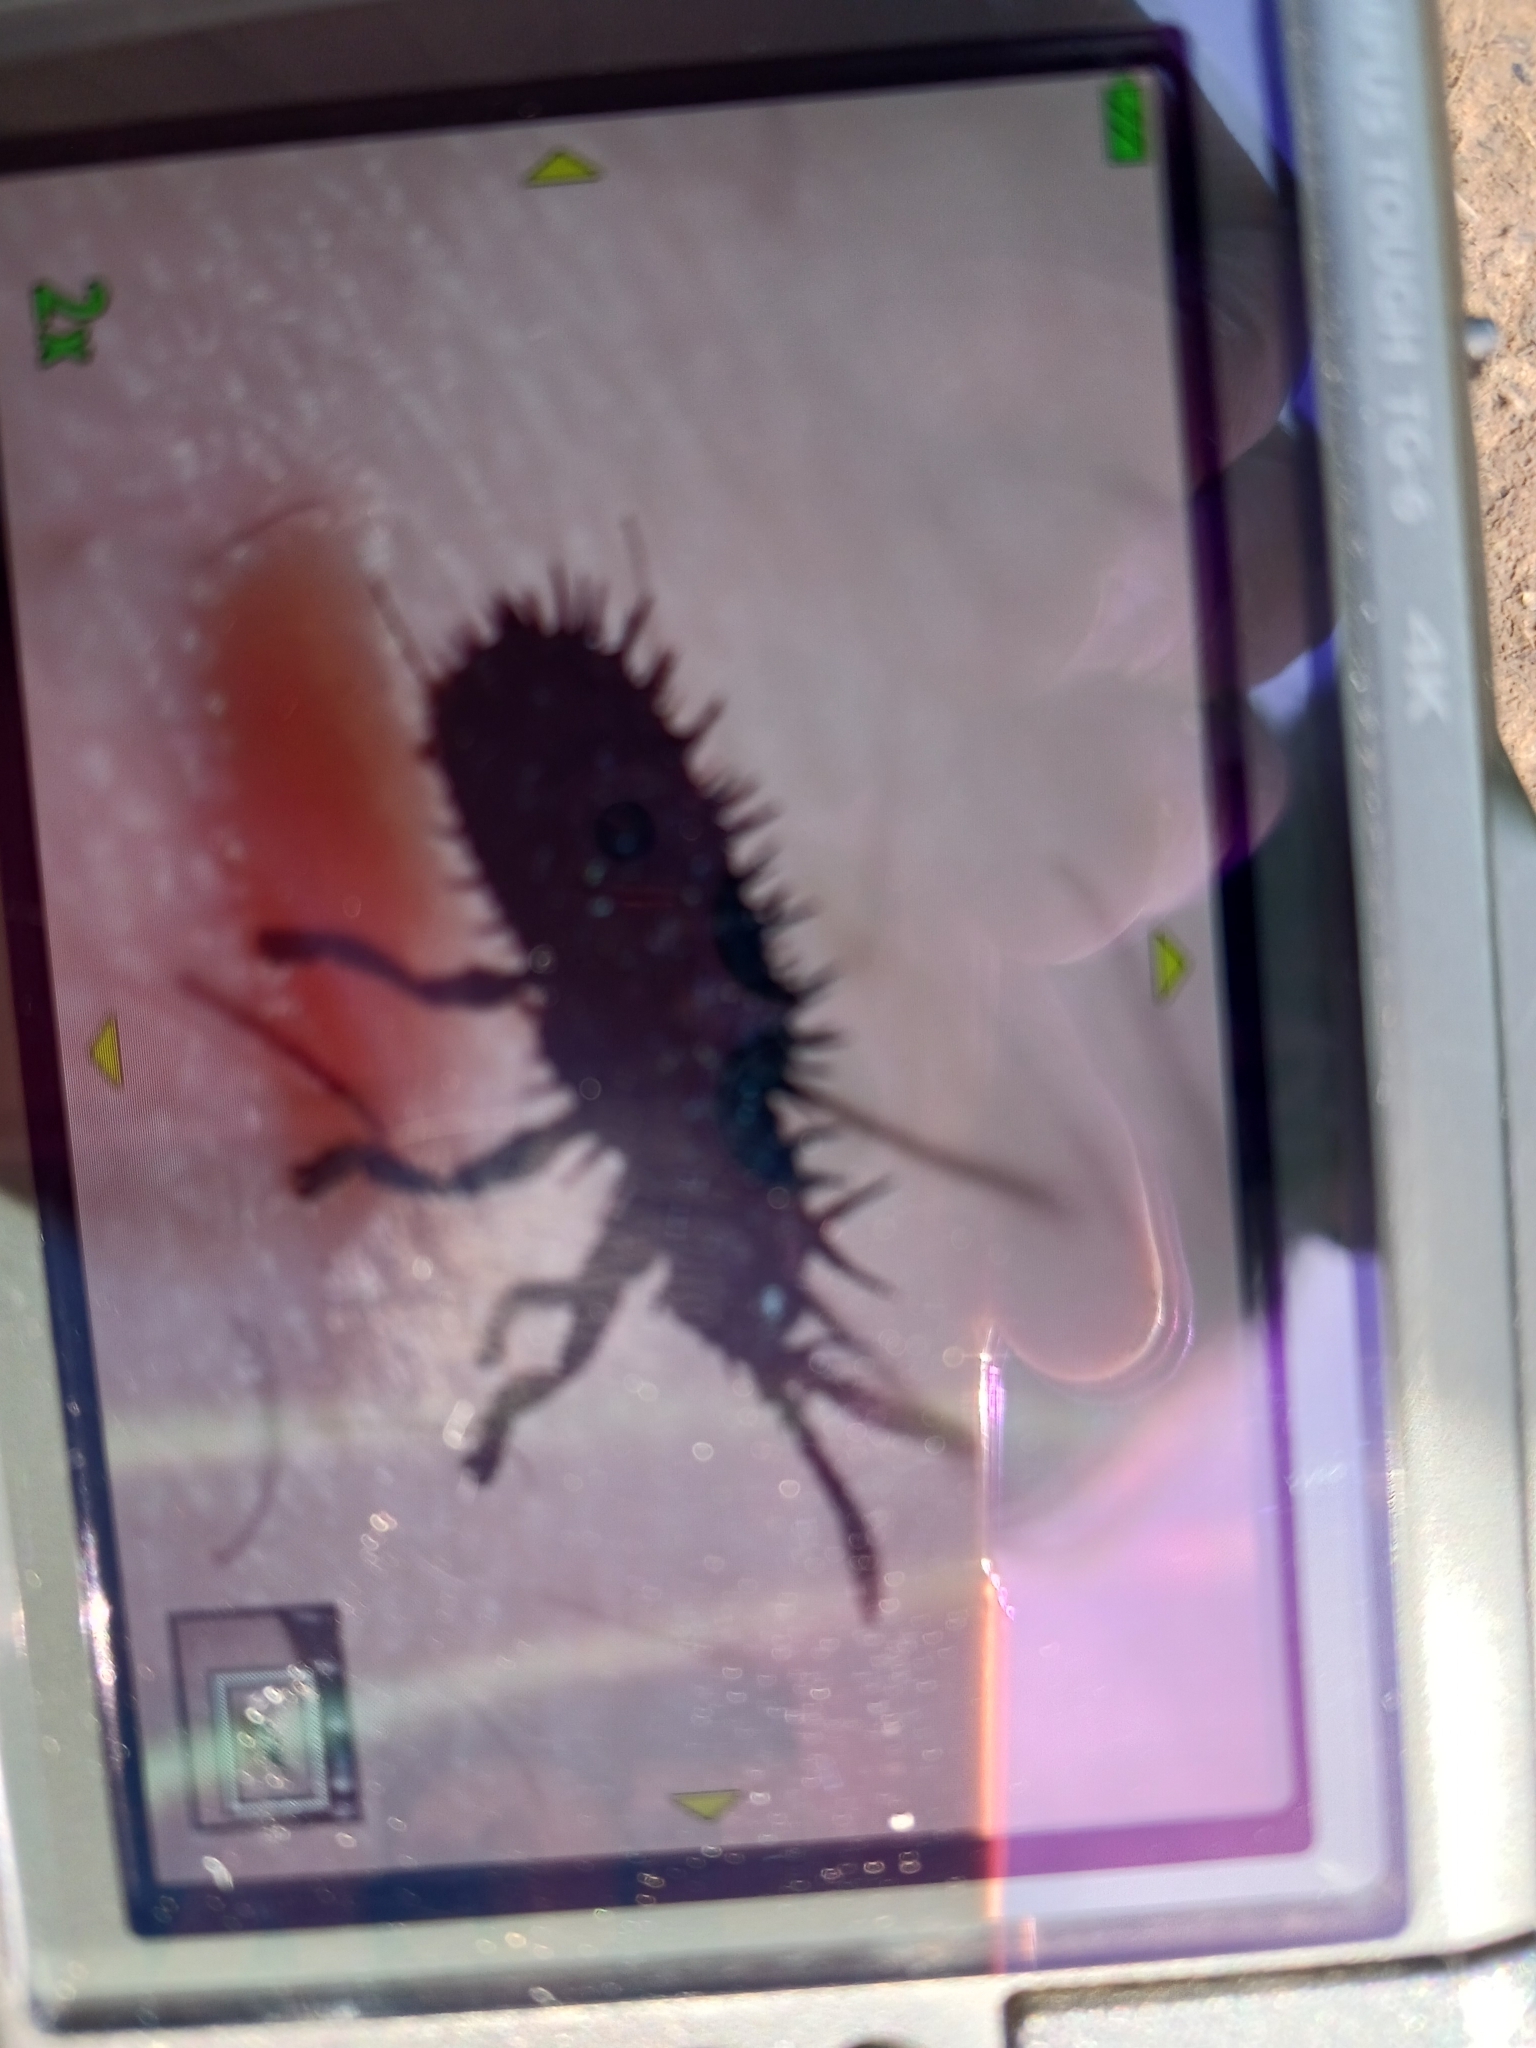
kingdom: Animalia
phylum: Arthropoda
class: Insecta
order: Coleoptera
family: Chrysomelidae
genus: Hispa
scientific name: Hispa atra
